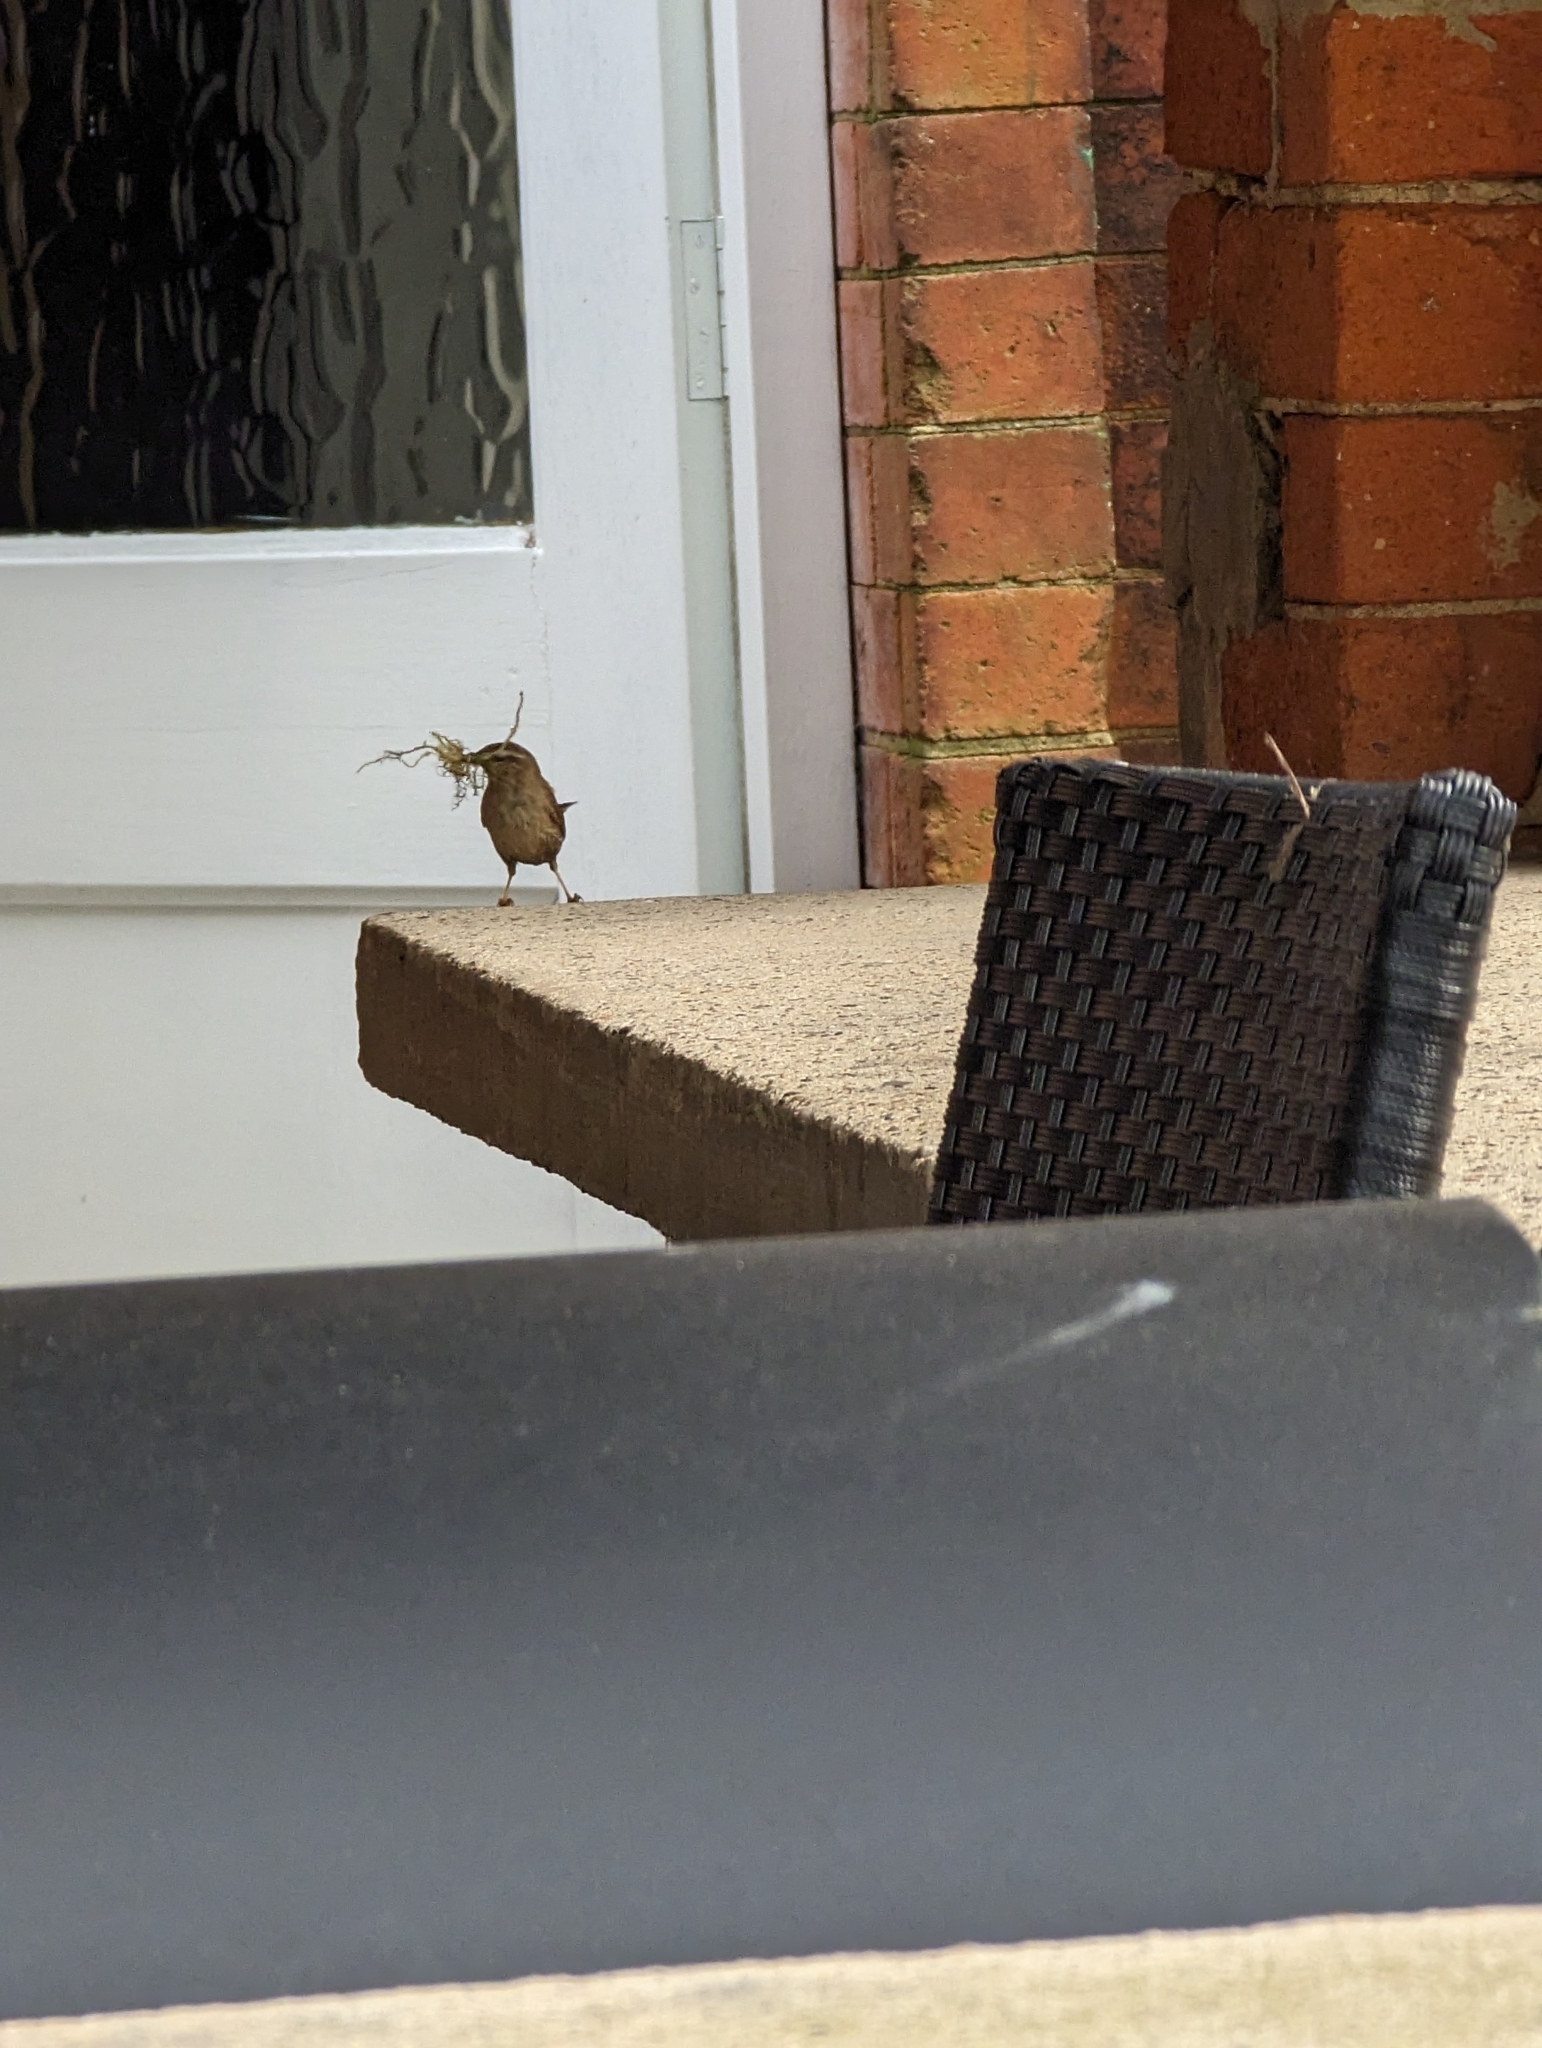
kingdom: Animalia
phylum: Chordata
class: Aves
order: Passeriformes
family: Troglodytidae
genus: Troglodytes
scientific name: Troglodytes troglodytes
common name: Eurasian wren
